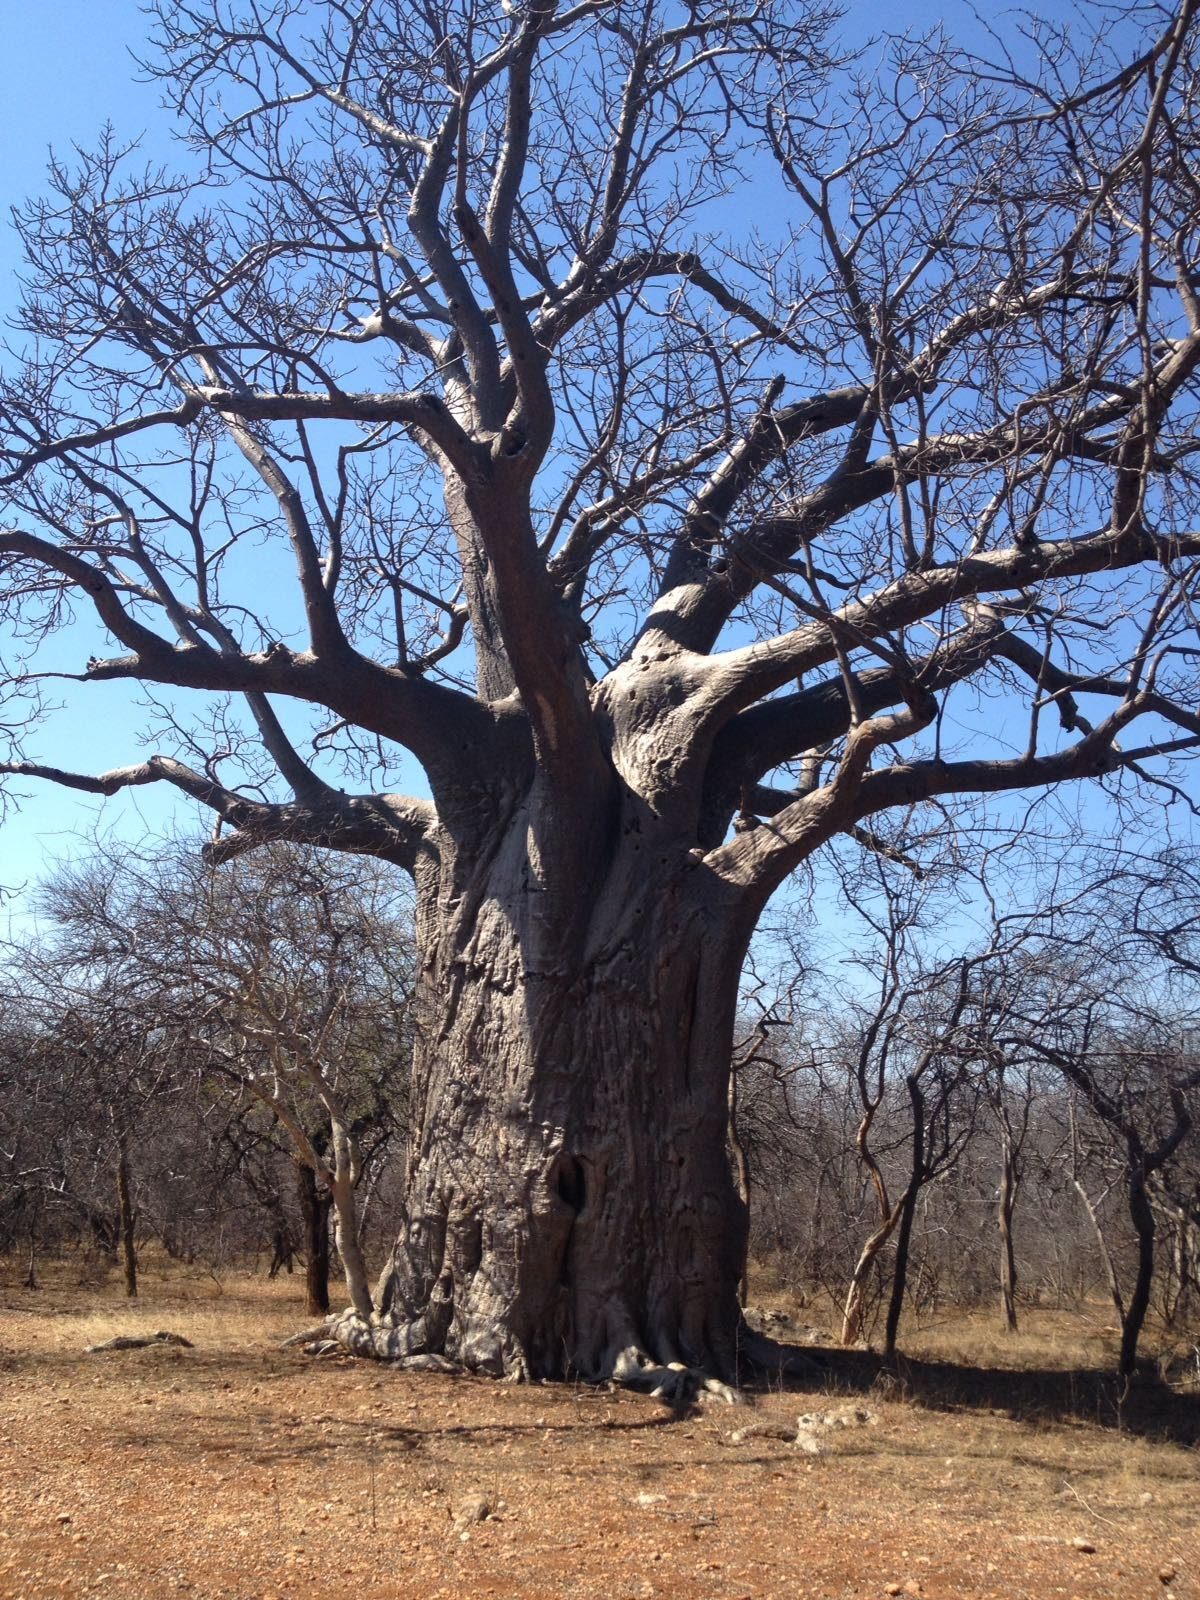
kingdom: Plantae
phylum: Tracheophyta
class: Magnoliopsida
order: Malvales
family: Malvaceae
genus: Adansonia
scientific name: Adansonia digitata
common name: Dead-rat-tree
